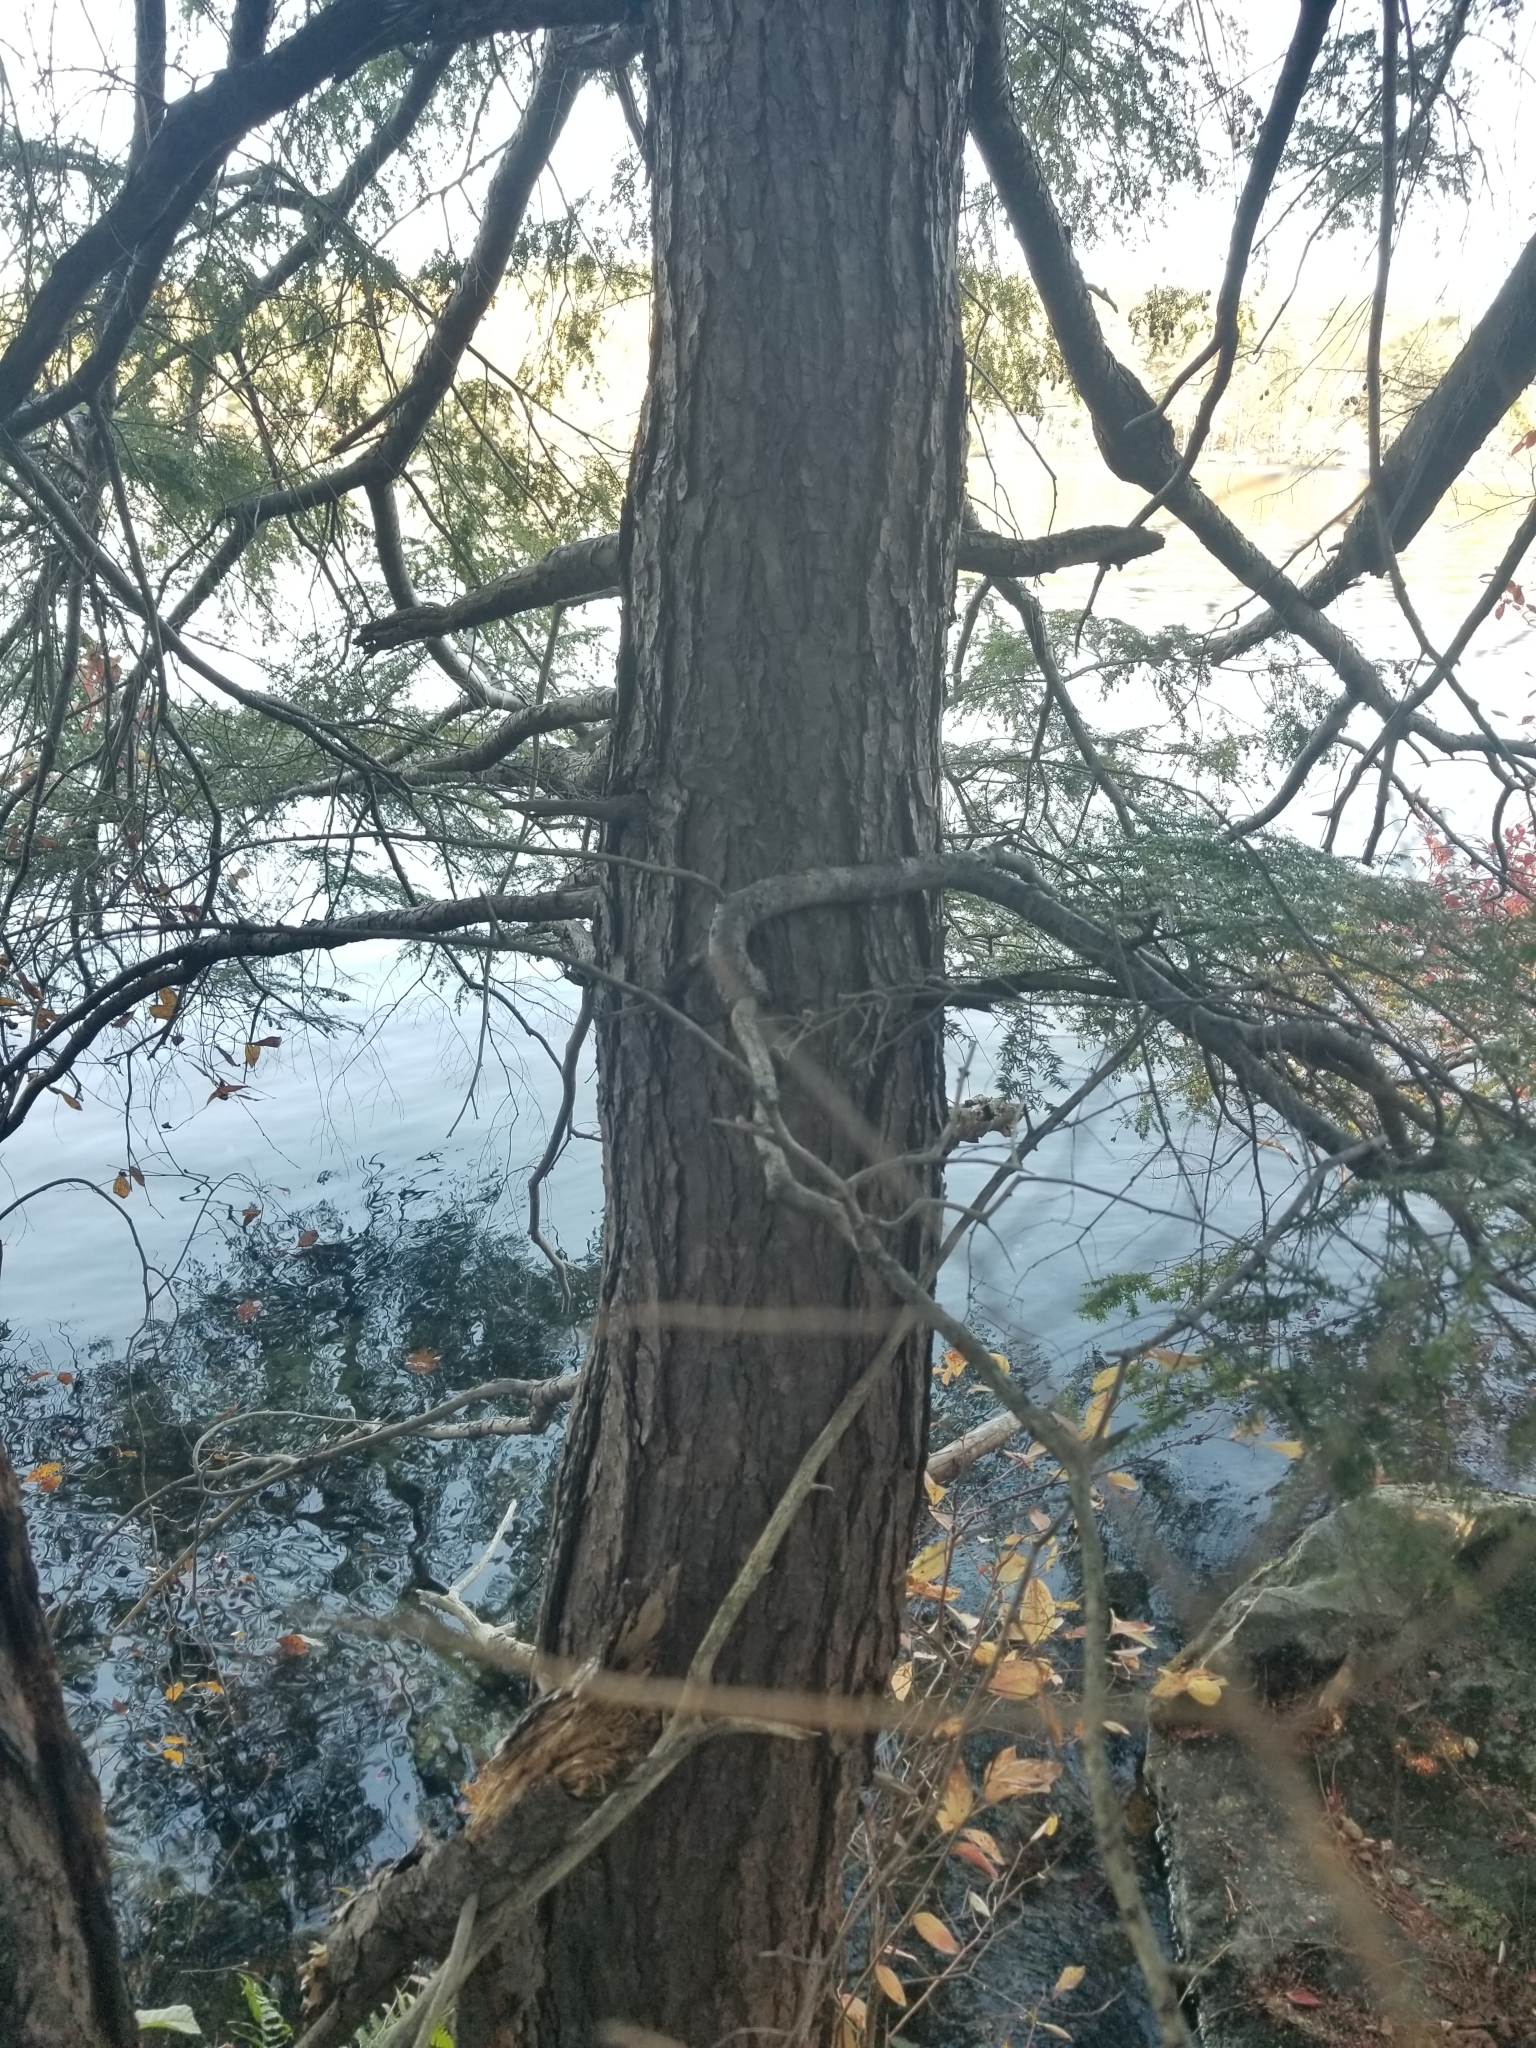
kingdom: Plantae
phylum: Tracheophyta
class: Pinopsida
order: Pinales
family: Pinaceae
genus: Tsuga
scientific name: Tsuga canadensis
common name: Eastern hemlock
